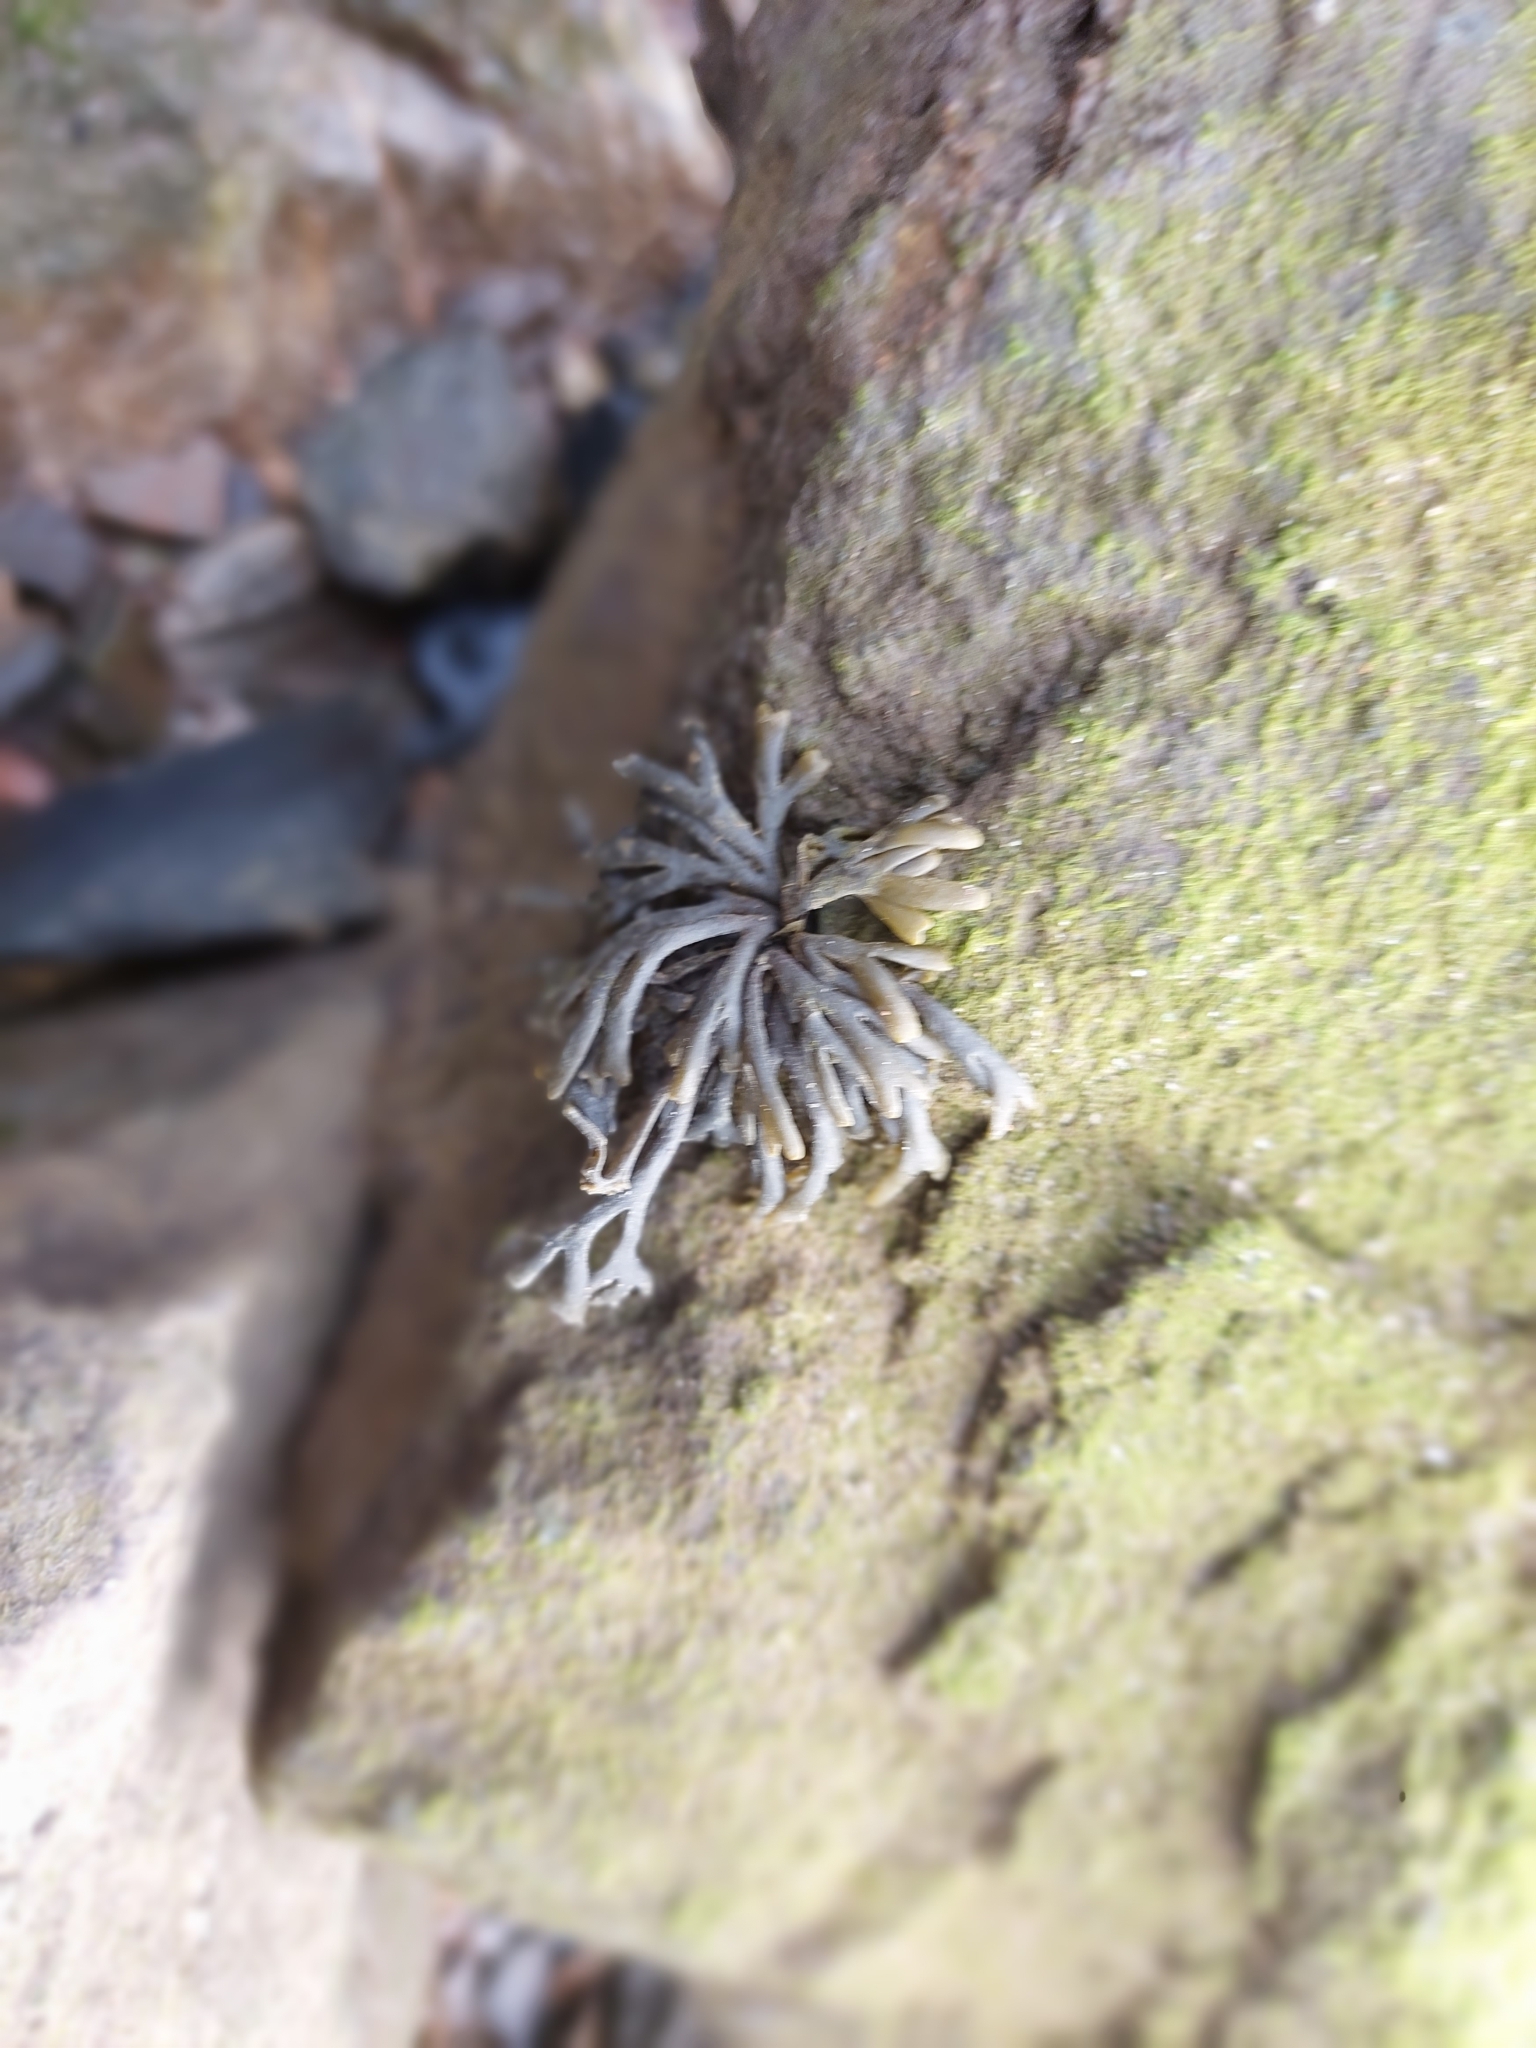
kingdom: Chromista
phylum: Ochrophyta
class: Phaeophyceae
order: Fucales
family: Fucaceae
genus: Pelvetia
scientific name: Pelvetia canaliculata
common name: Channelled wrack
